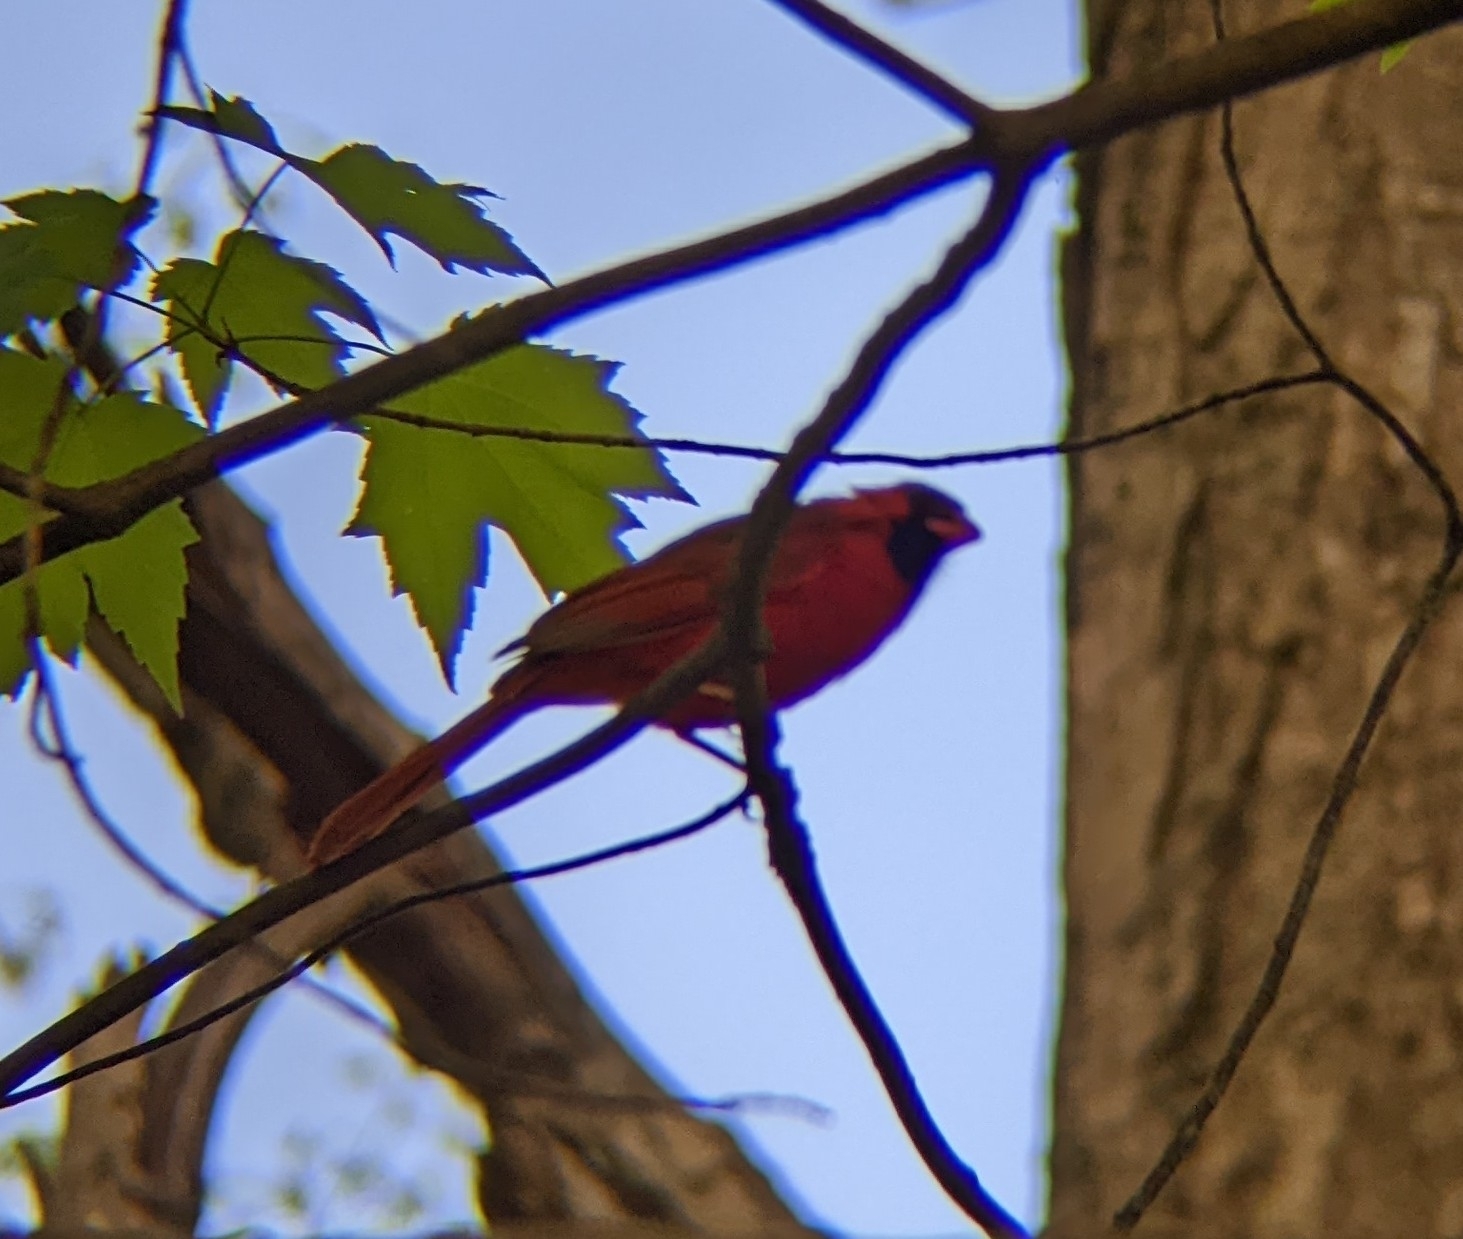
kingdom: Animalia
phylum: Chordata
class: Aves
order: Passeriformes
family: Cardinalidae
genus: Cardinalis
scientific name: Cardinalis cardinalis
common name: Northern cardinal
